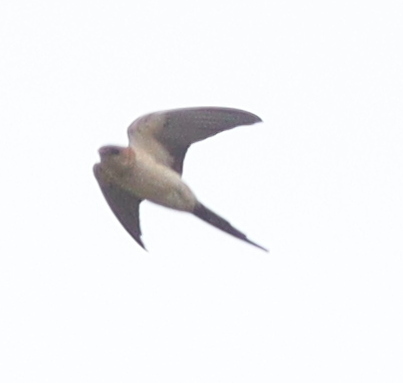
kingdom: Animalia
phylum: Chordata
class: Aves
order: Passeriformes
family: Hirundinidae
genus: Cecropis
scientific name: Cecropis daurica
